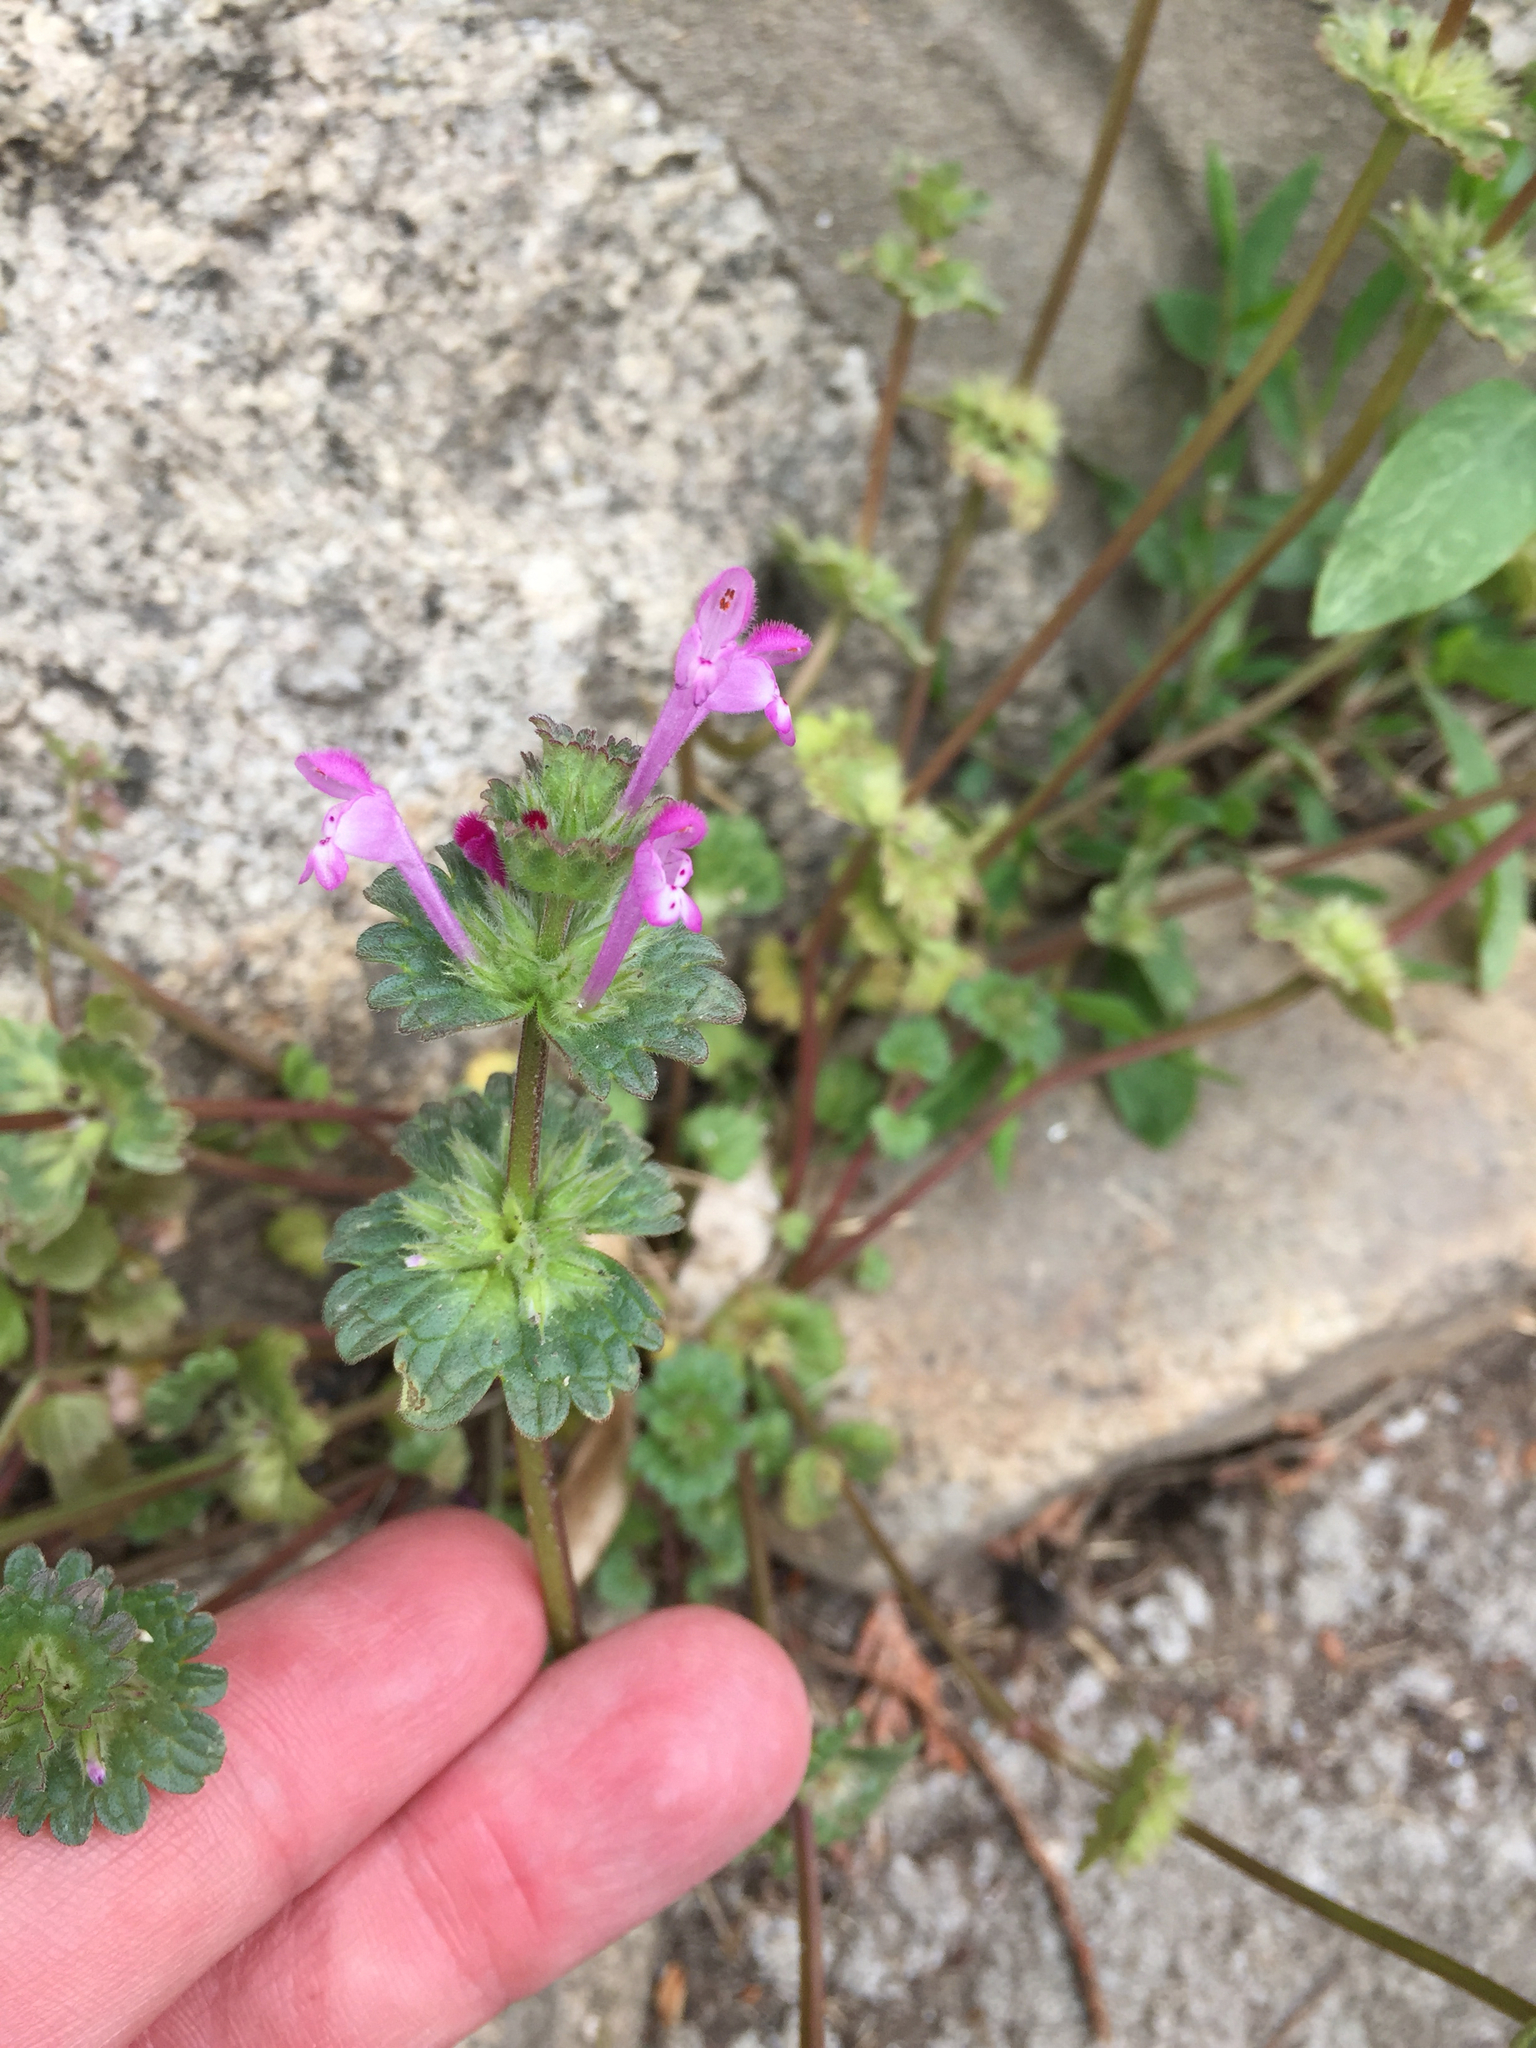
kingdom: Plantae
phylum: Tracheophyta
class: Magnoliopsida
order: Lamiales
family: Lamiaceae
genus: Lamium
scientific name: Lamium amplexicaule
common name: Henbit dead-nettle
